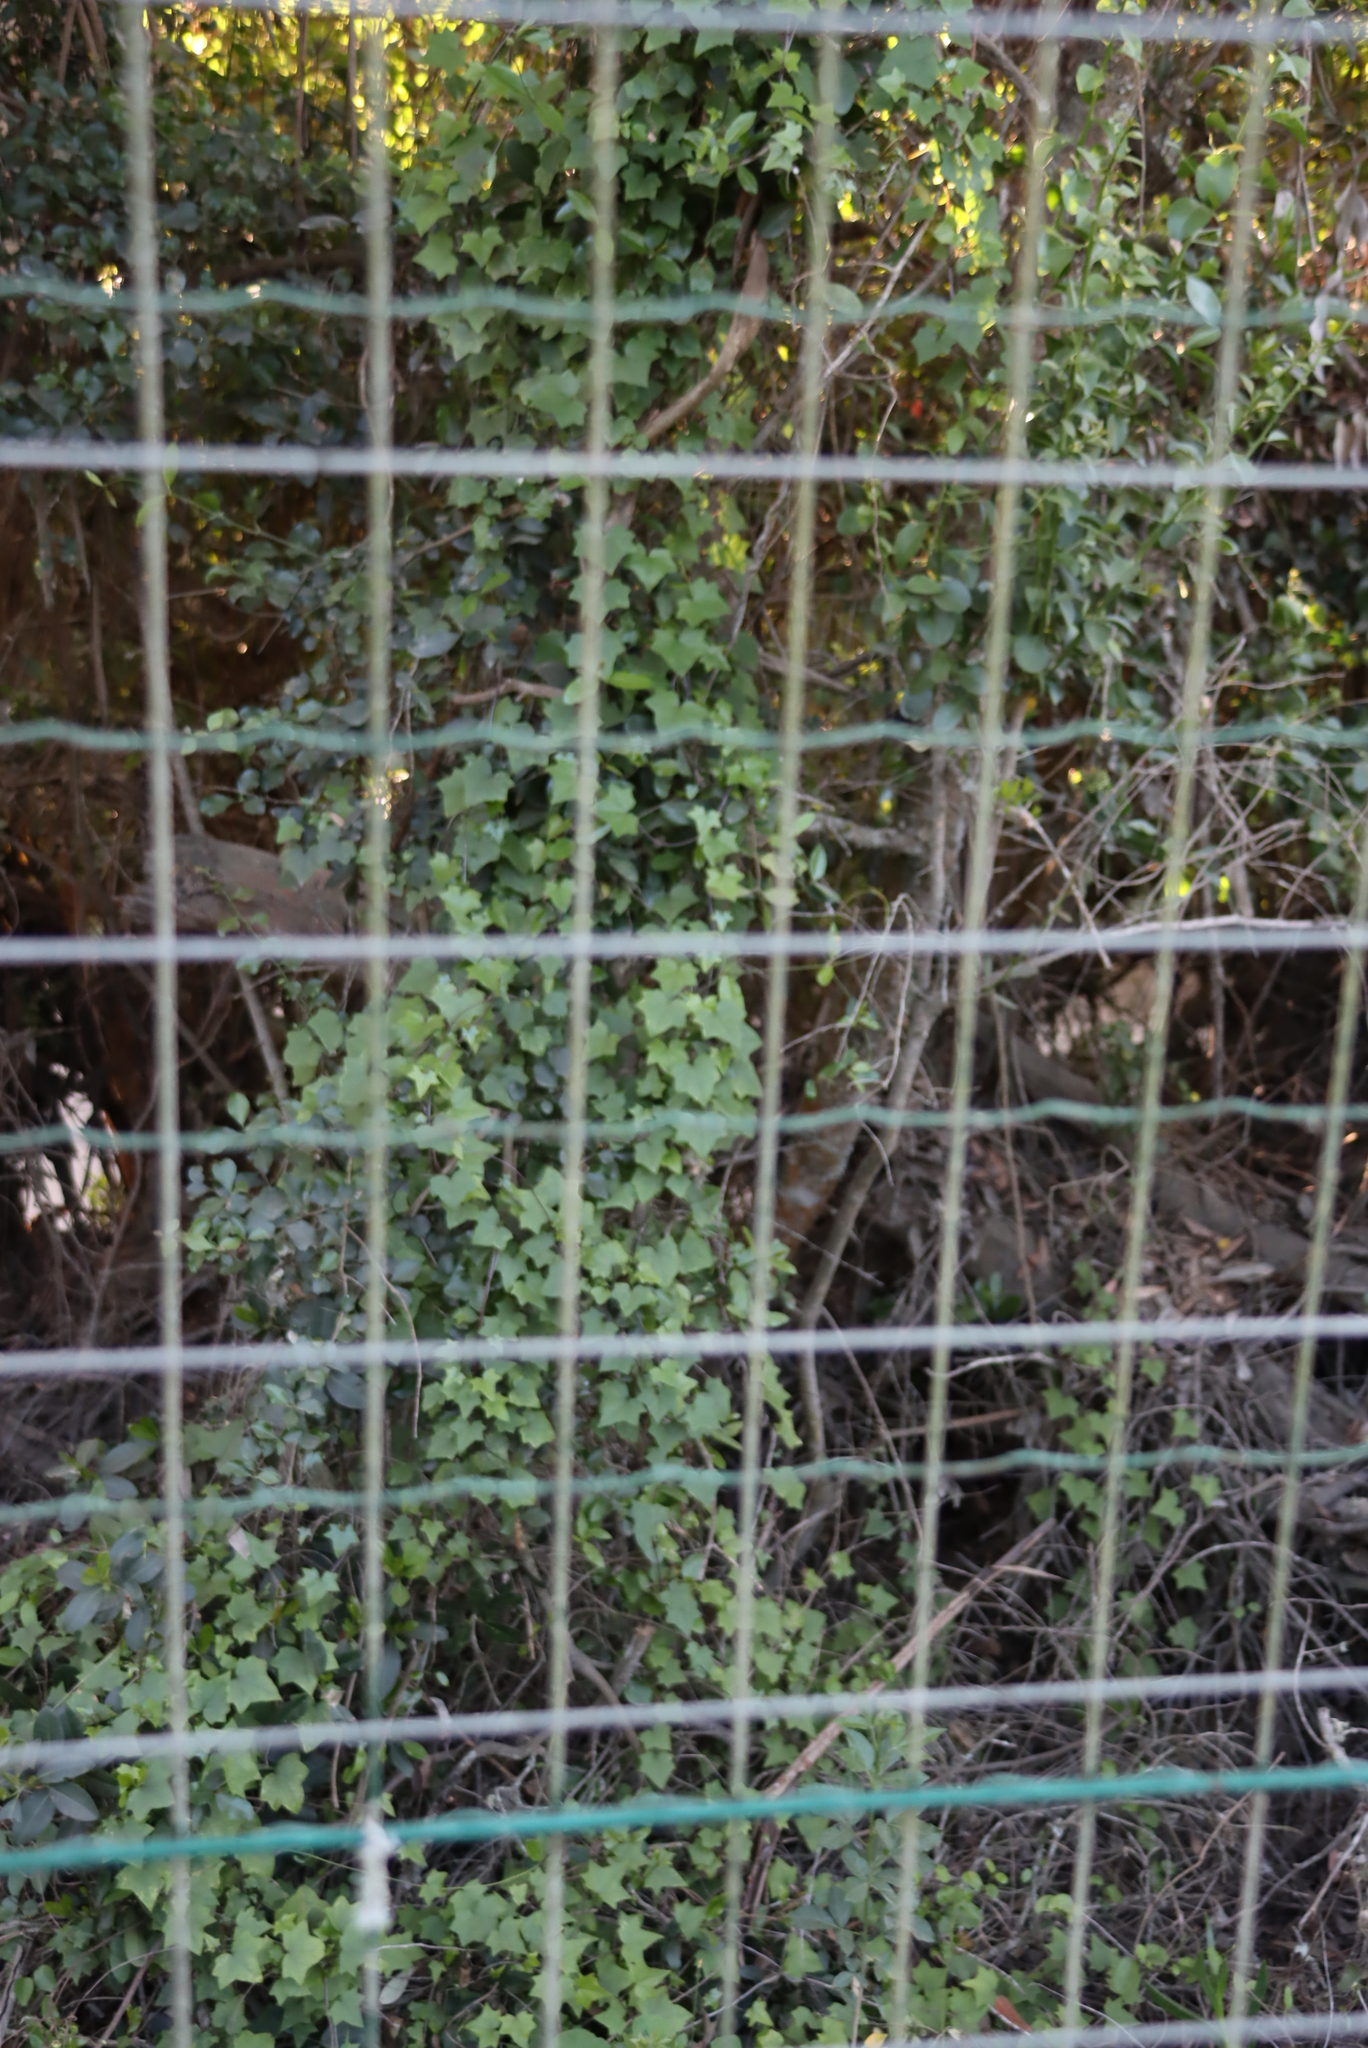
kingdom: Plantae
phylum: Tracheophyta
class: Magnoliopsida
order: Asterales
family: Asteraceae
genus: Senecio
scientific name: Senecio deltoideus
